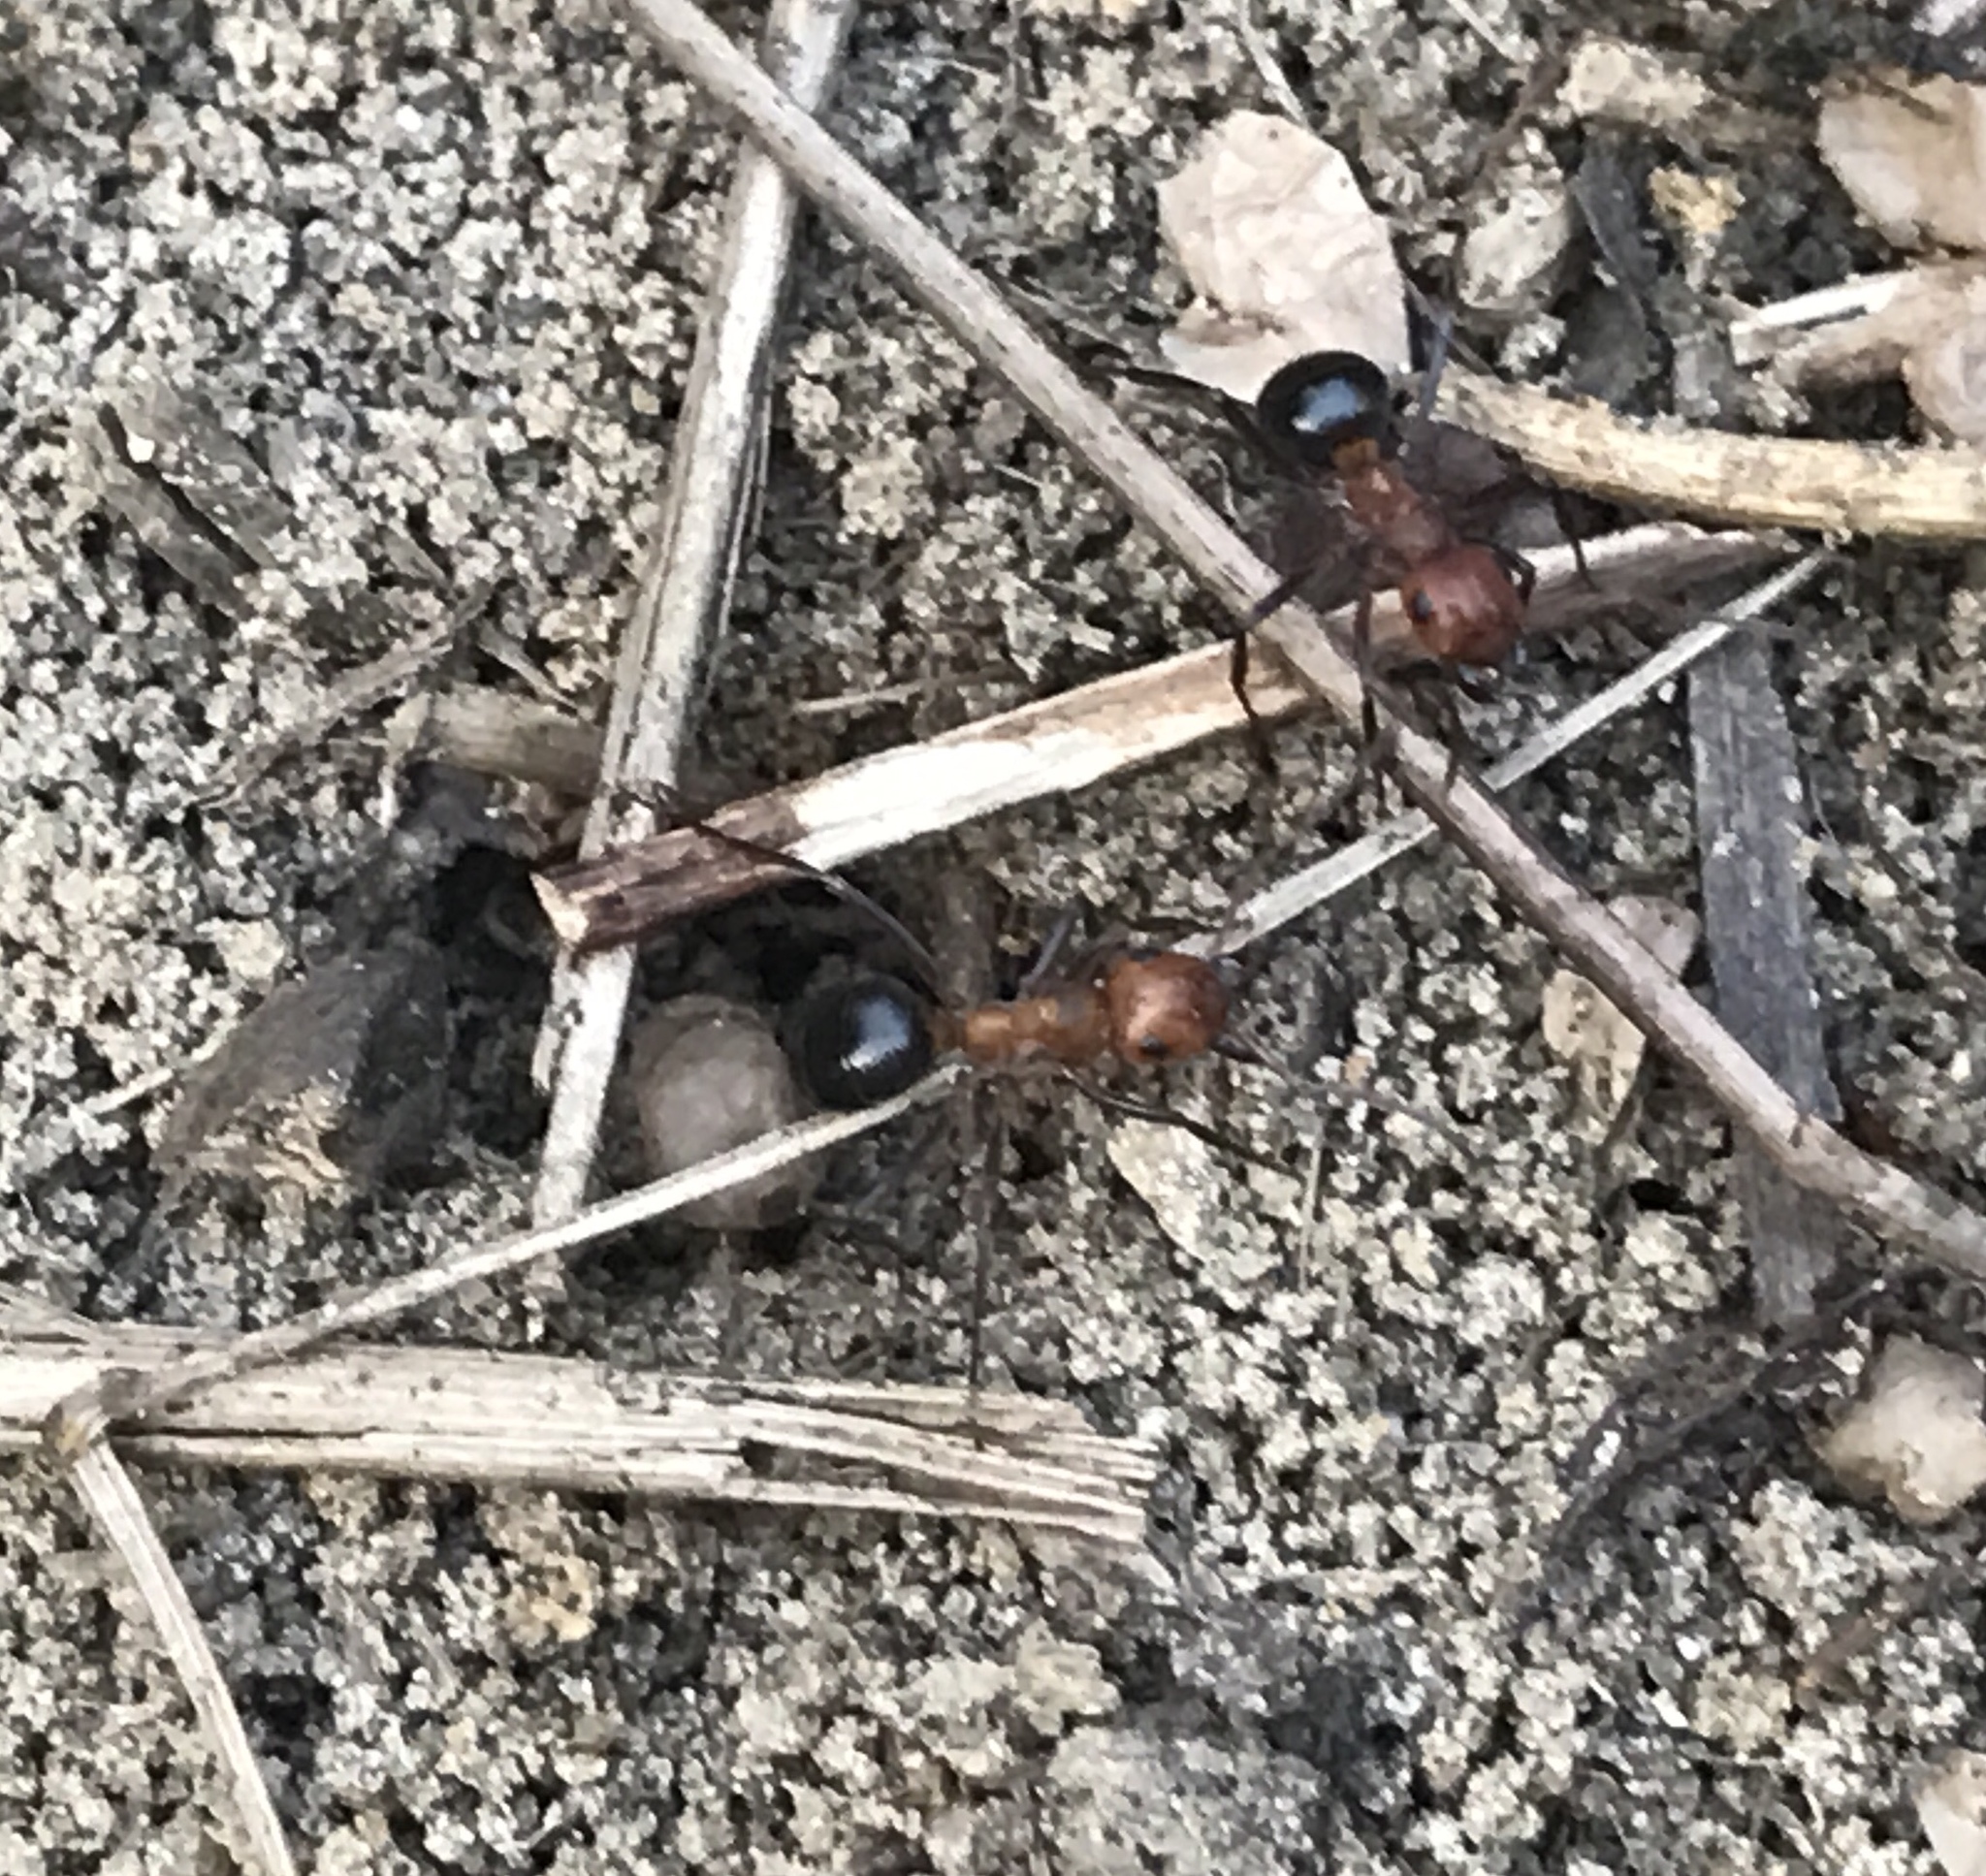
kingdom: Animalia
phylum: Arthropoda
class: Insecta
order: Hymenoptera
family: Formicidae
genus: Formica
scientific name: Formica exsectoides
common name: Allegheny mound ant
